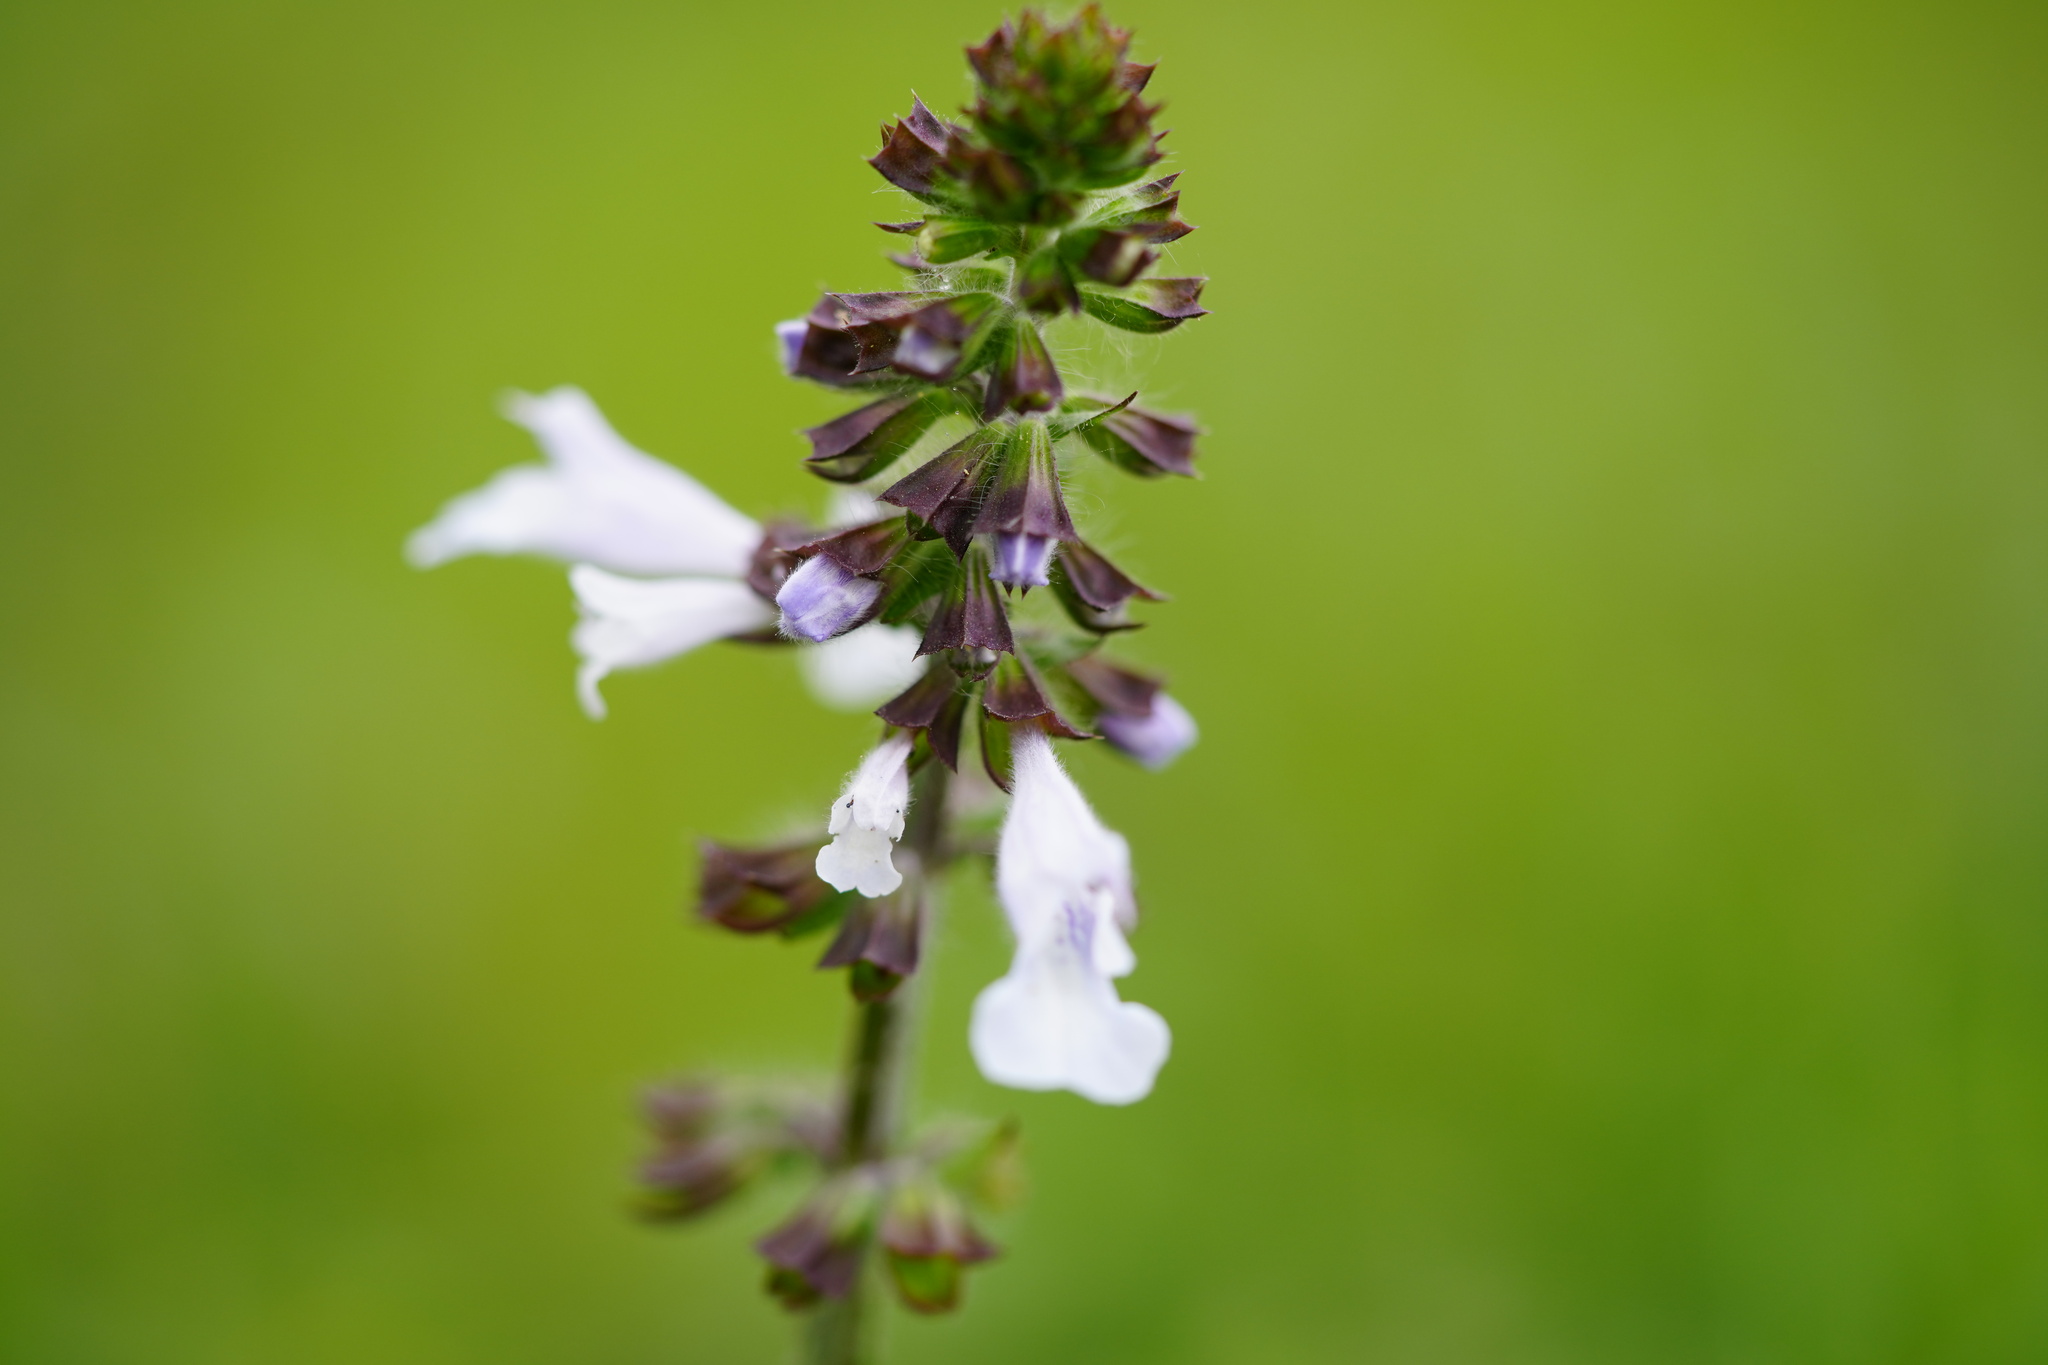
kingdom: Plantae
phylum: Tracheophyta
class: Magnoliopsida
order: Lamiales
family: Lamiaceae
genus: Salvia
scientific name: Salvia lyrata
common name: Cancerweed
